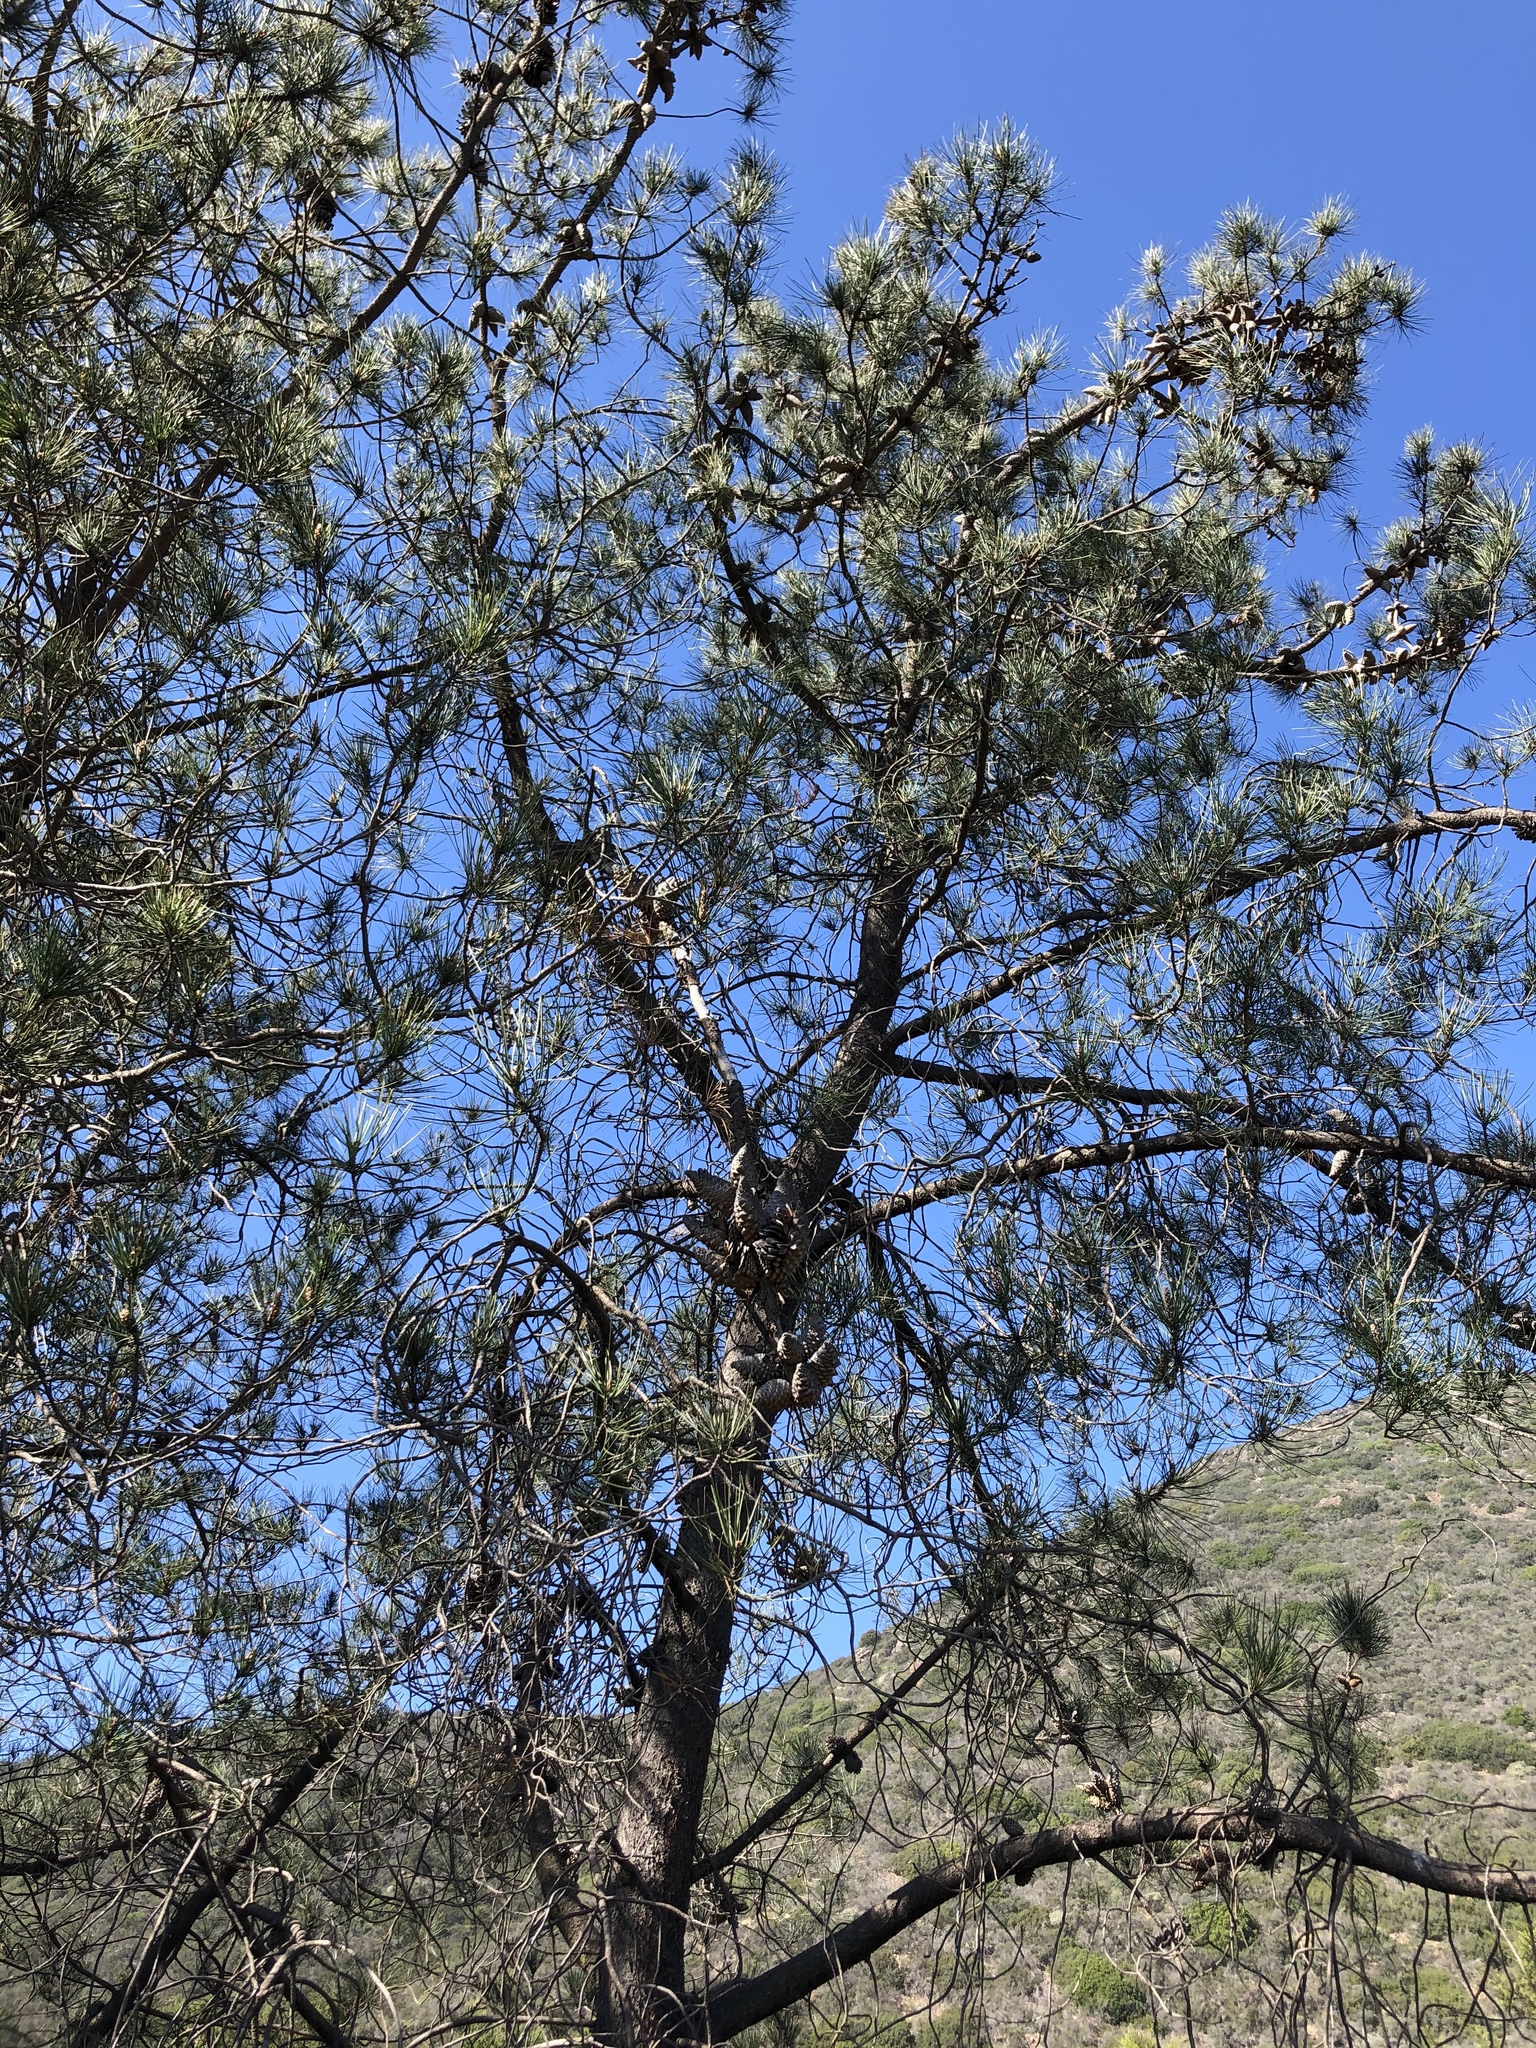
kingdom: Plantae
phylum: Tracheophyta
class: Pinopsida
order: Pinales
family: Pinaceae
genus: Pinus
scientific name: Pinus attenuata
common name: Knobcone pine
